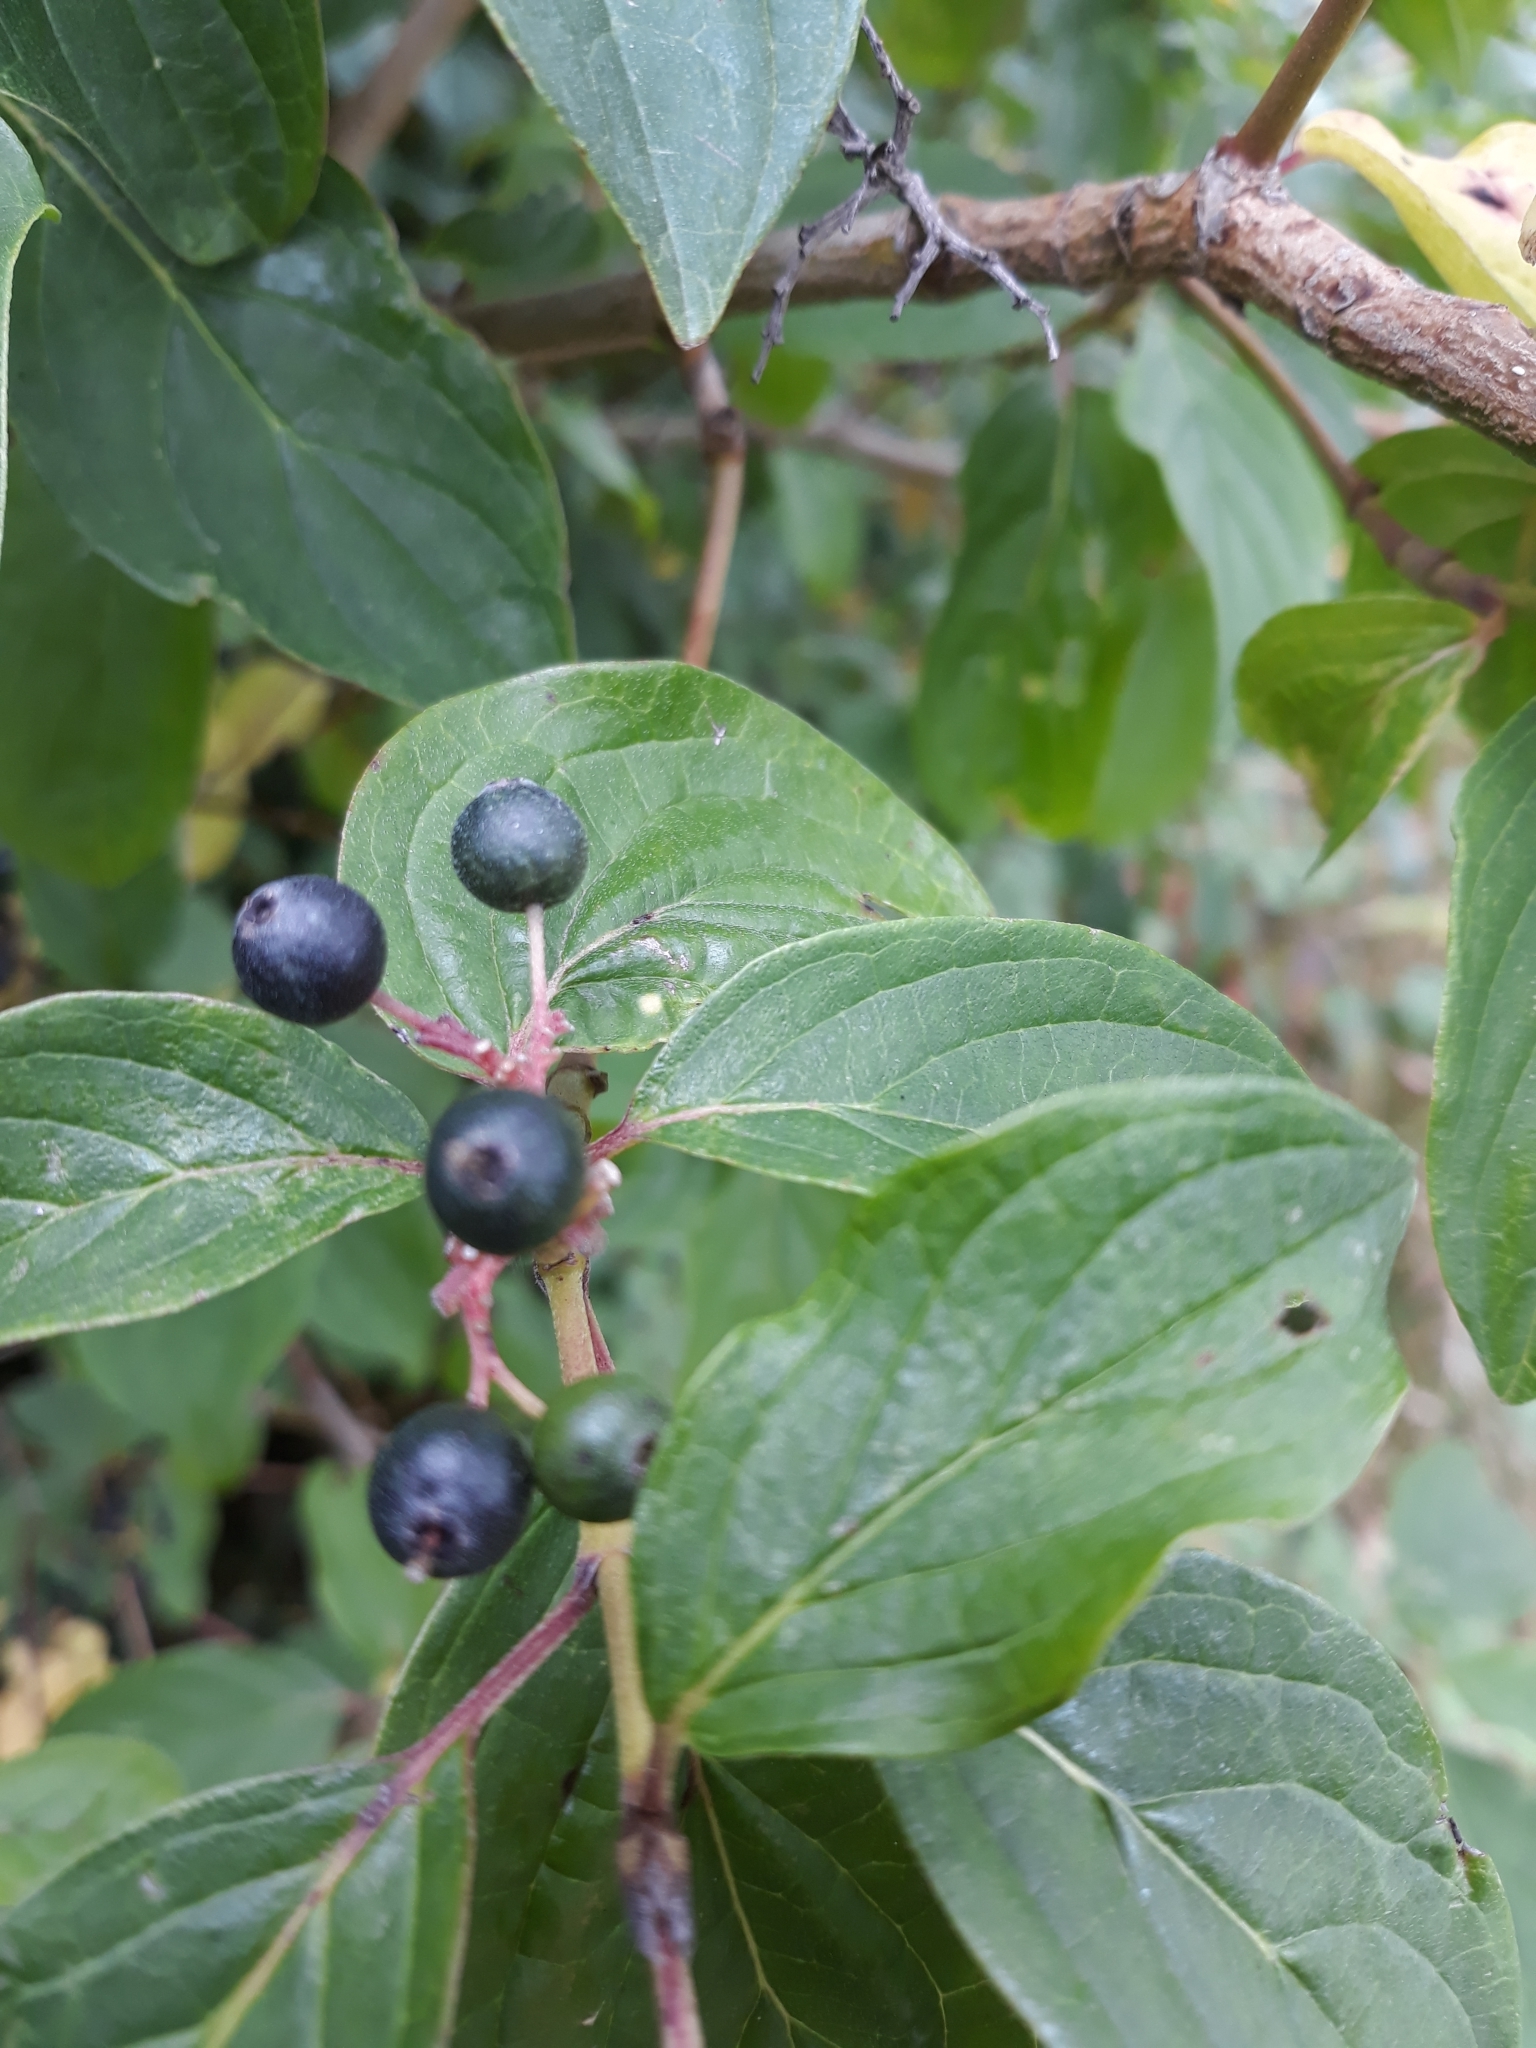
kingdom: Plantae
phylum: Tracheophyta
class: Magnoliopsida
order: Cornales
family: Cornaceae
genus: Cornus
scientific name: Cornus sanguinea
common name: Dogwood
